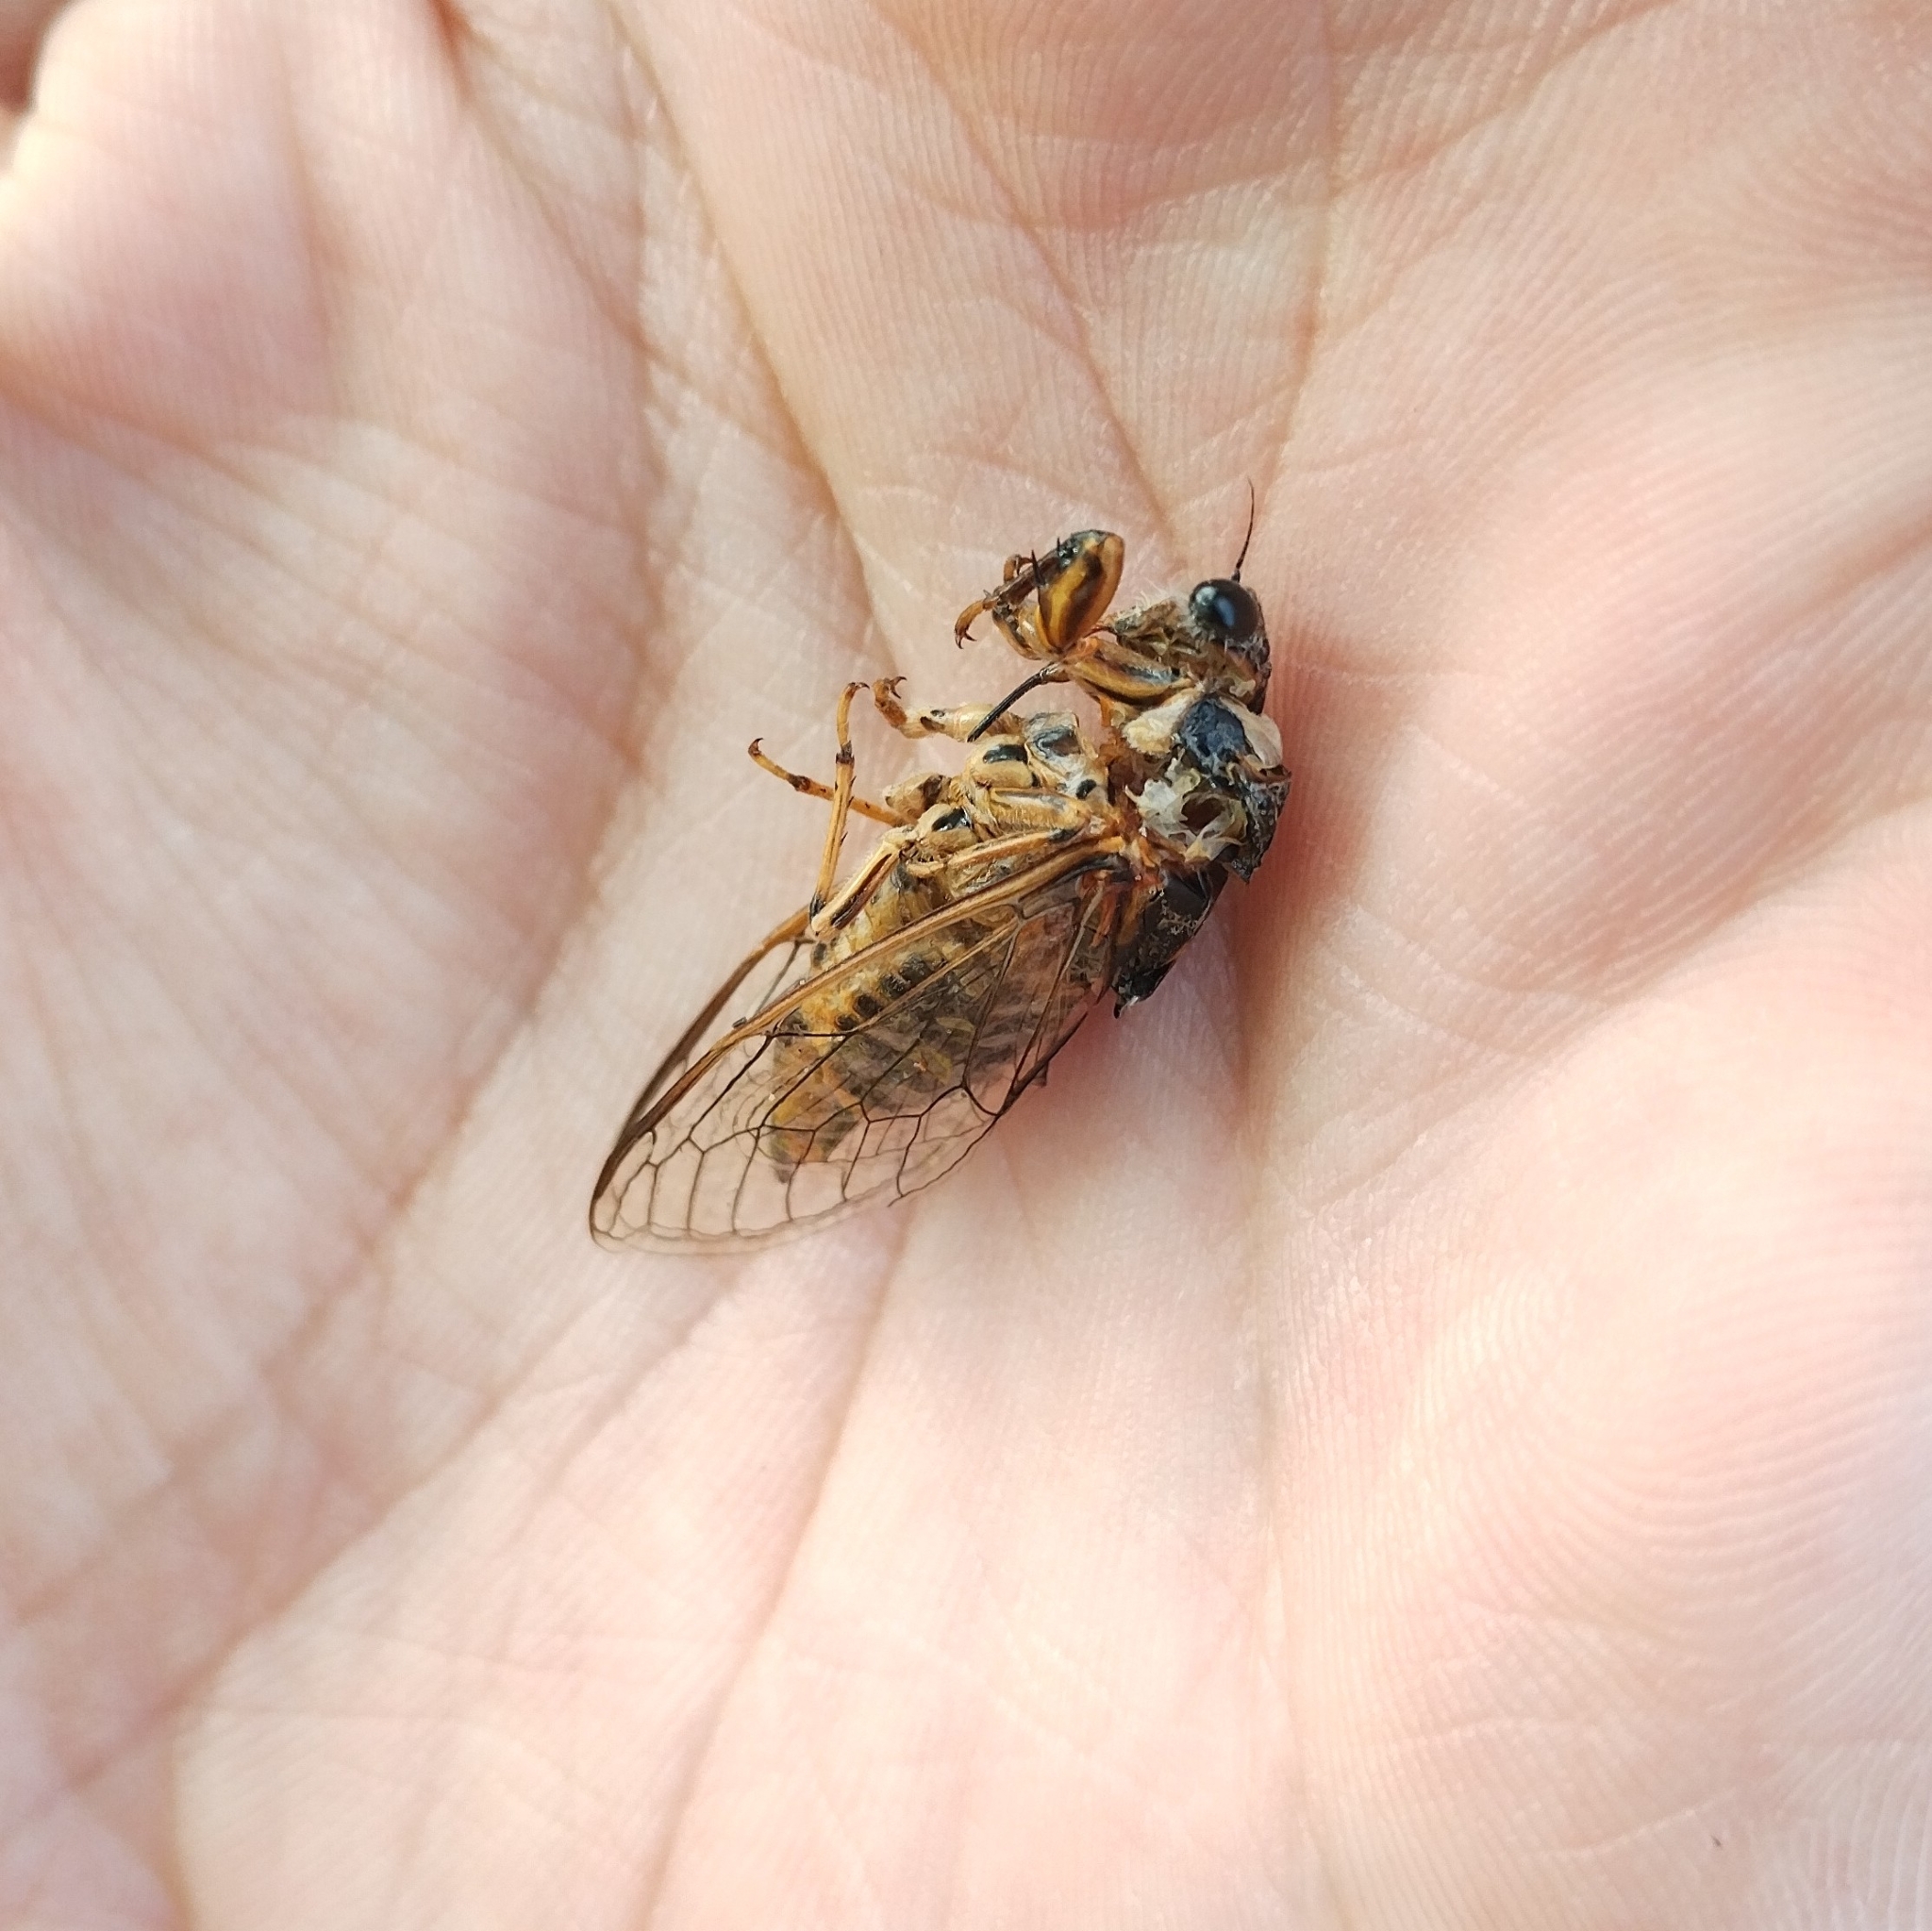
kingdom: Animalia
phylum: Arthropoda
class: Insecta
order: Hemiptera
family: Cicadidae
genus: Dimissalna
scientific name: Dimissalna dimissa
